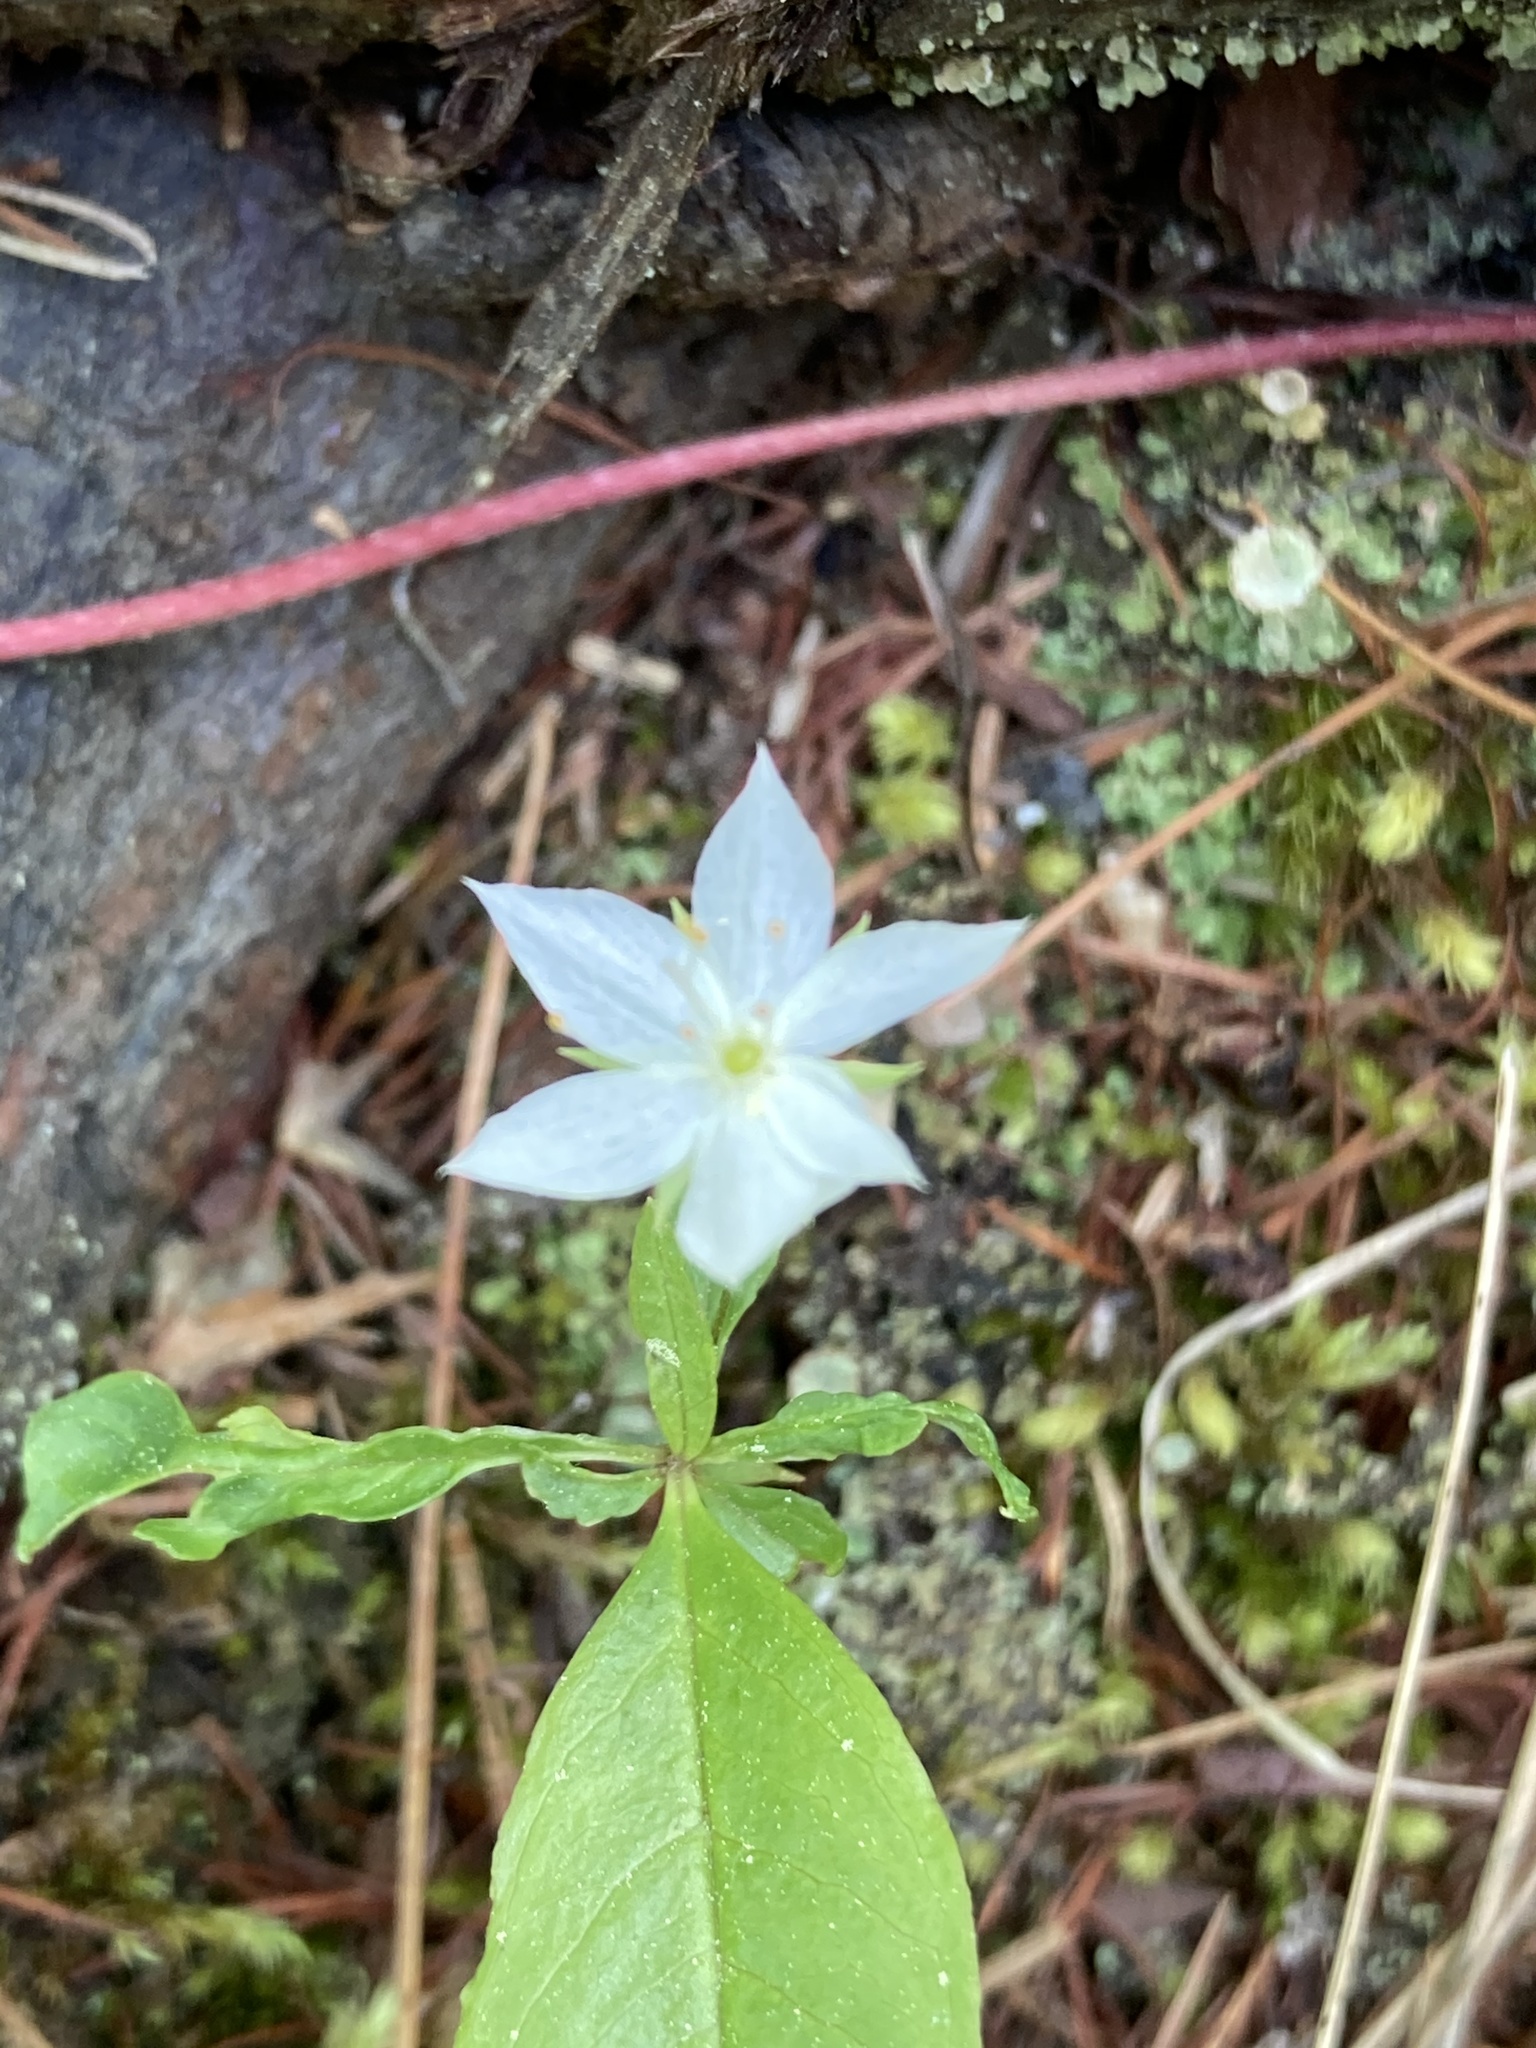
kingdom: Plantae
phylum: Tracheophyta
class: Magnoliopsida
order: Ericales
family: Primulaceae
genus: Lysimachia
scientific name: Lysimachia borealis
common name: American starflower
